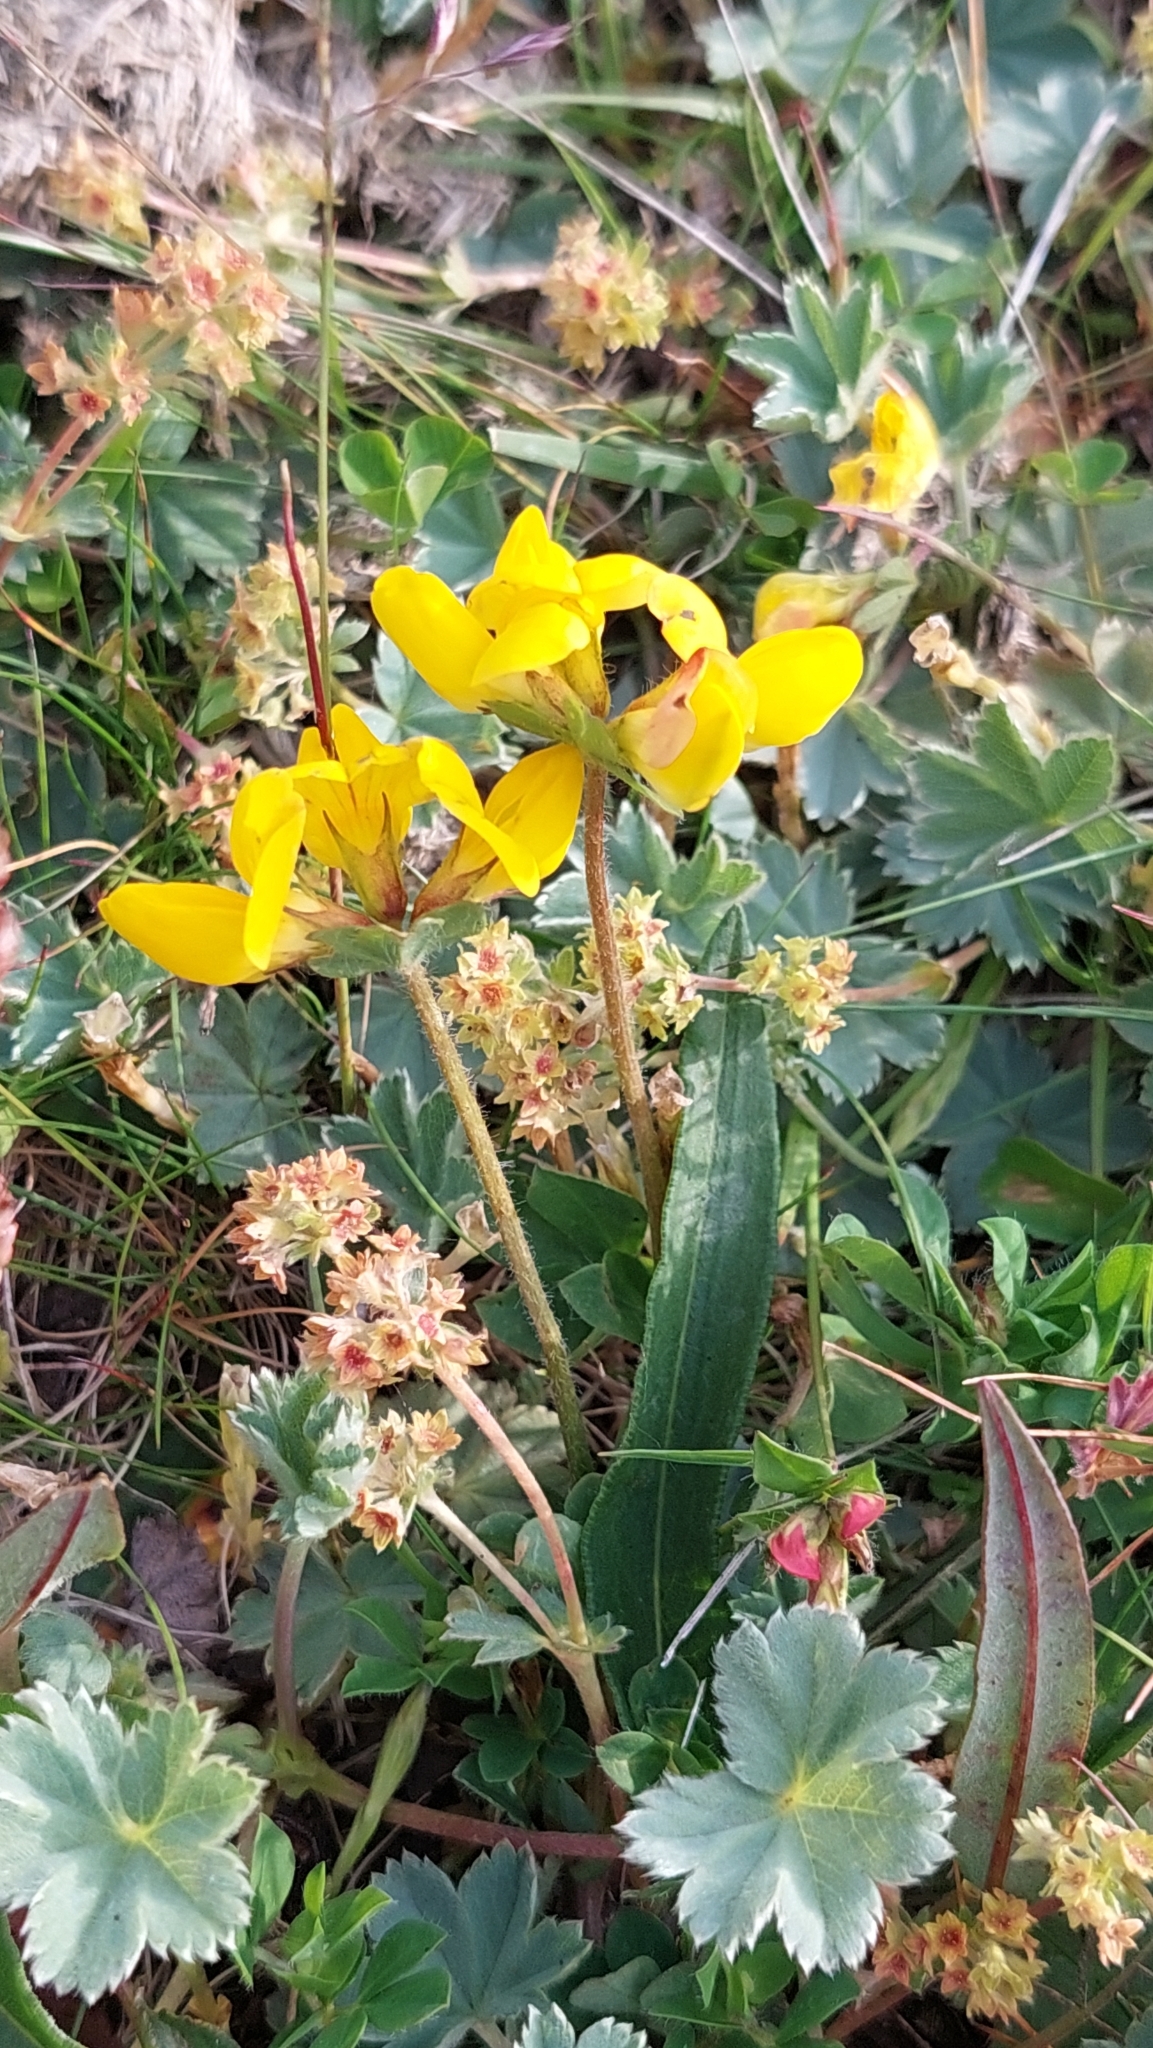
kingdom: Plantae
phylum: Tracheophyta
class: Magnoliopsida
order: Fabales
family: Fabaceae
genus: Lotus
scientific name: Lotus corniculatus
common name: Common bird's-foot-trefoil
